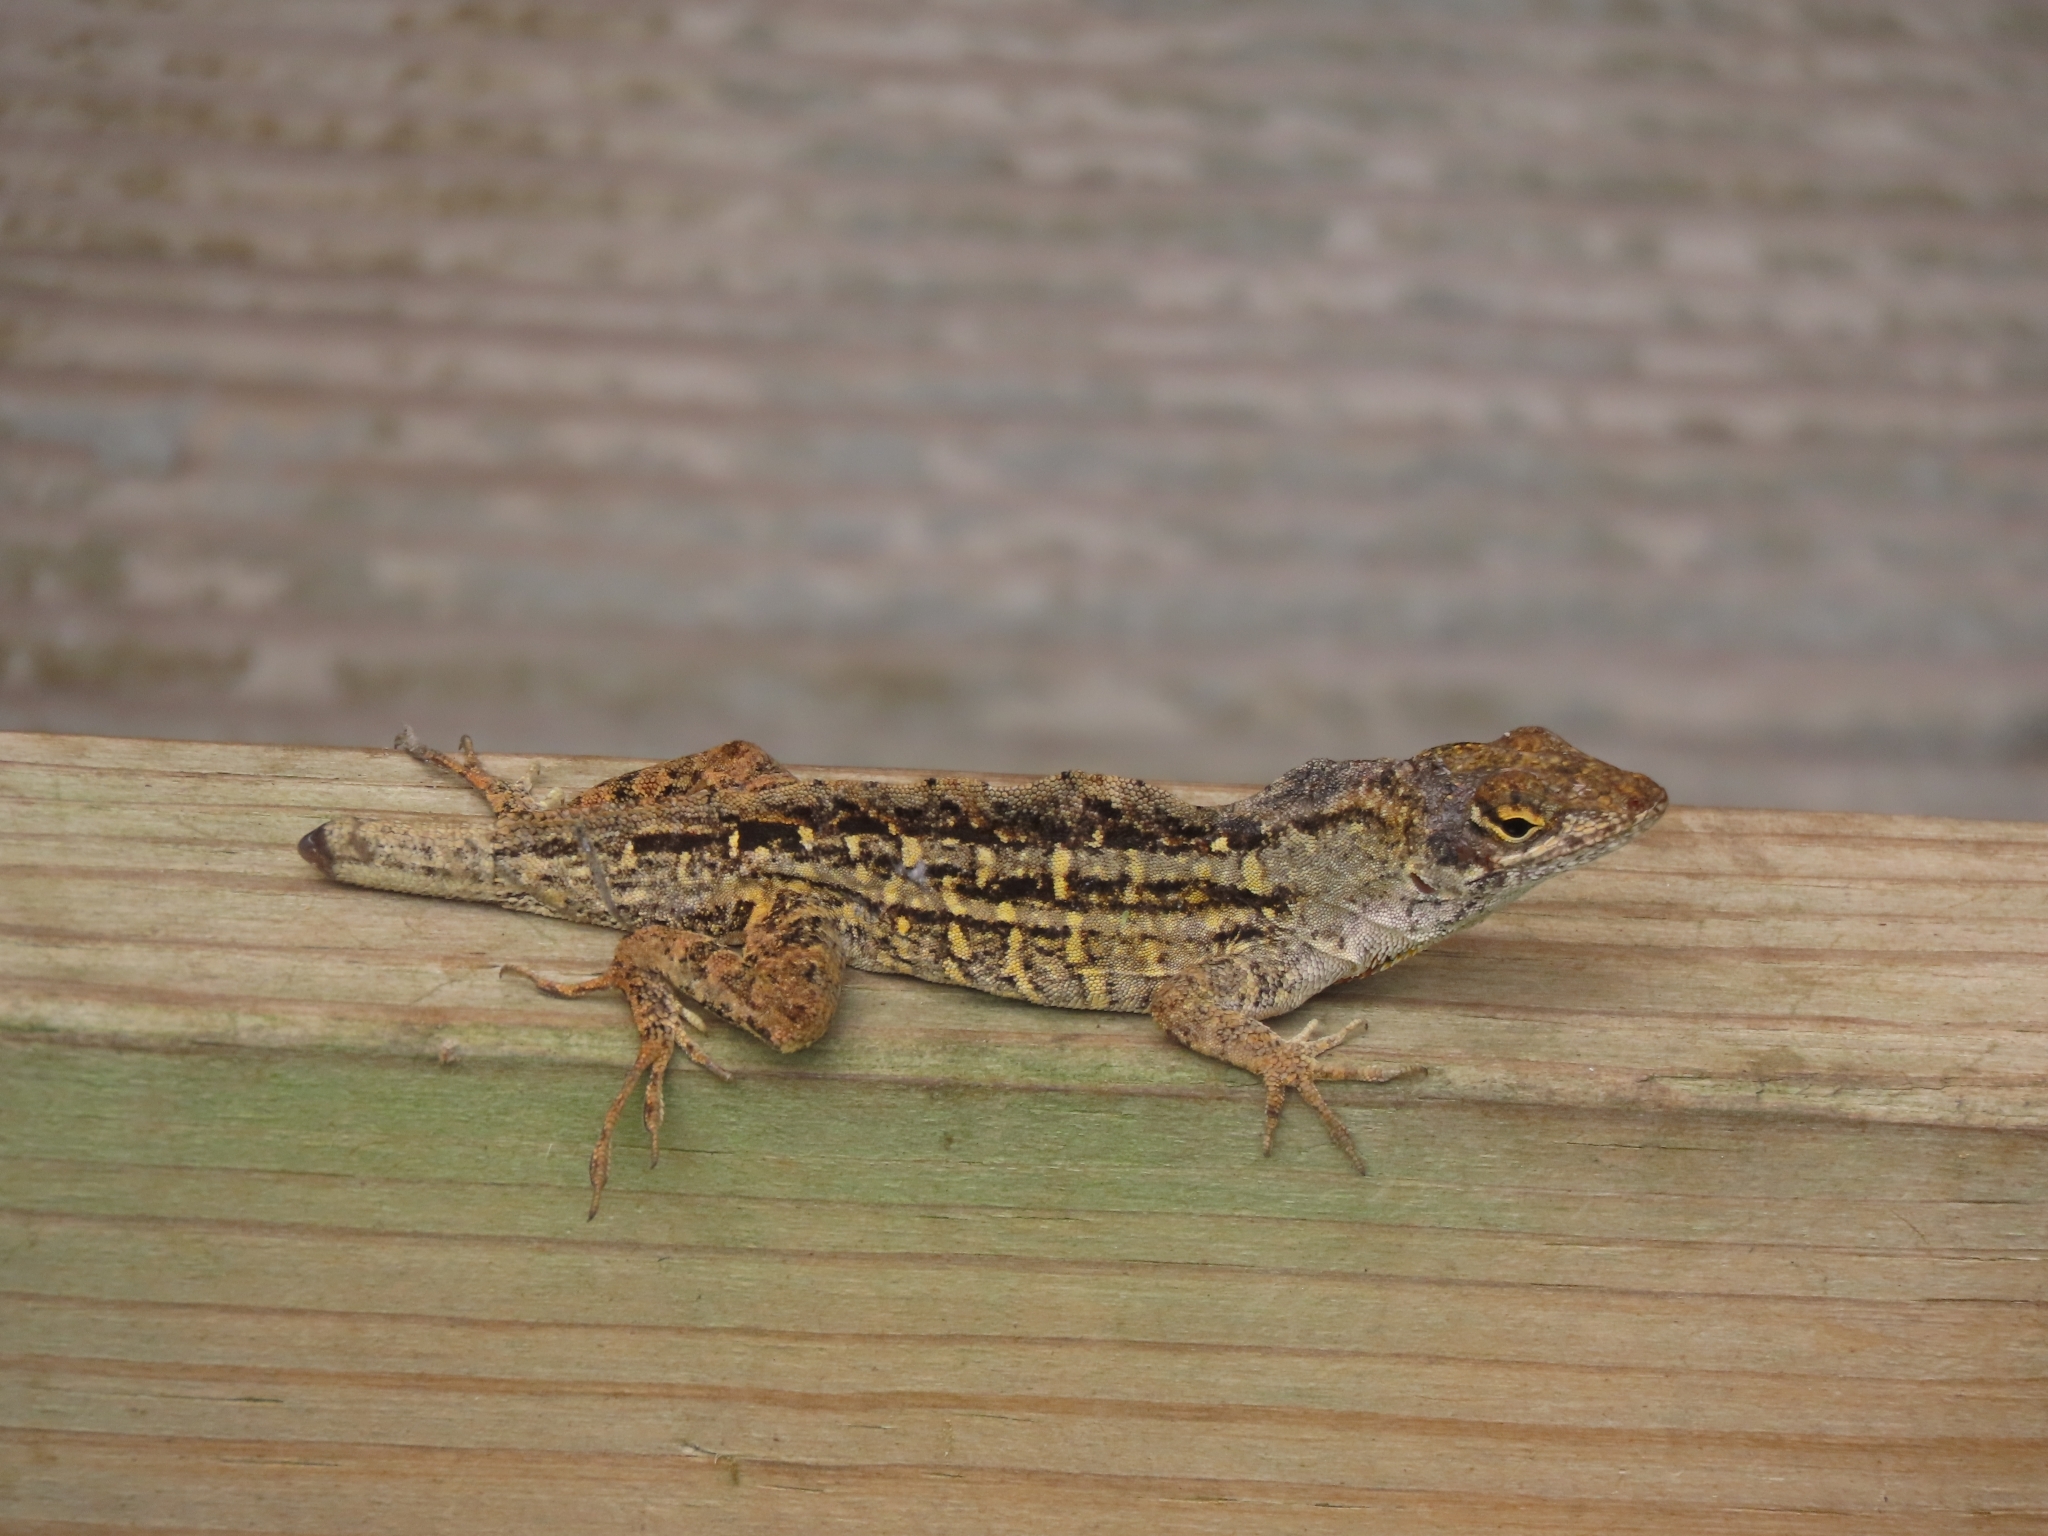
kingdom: Animalia
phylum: Chordata
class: Squamata
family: Dactyloidae
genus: Anolis
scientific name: Anolis sagrei
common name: Brown anole
